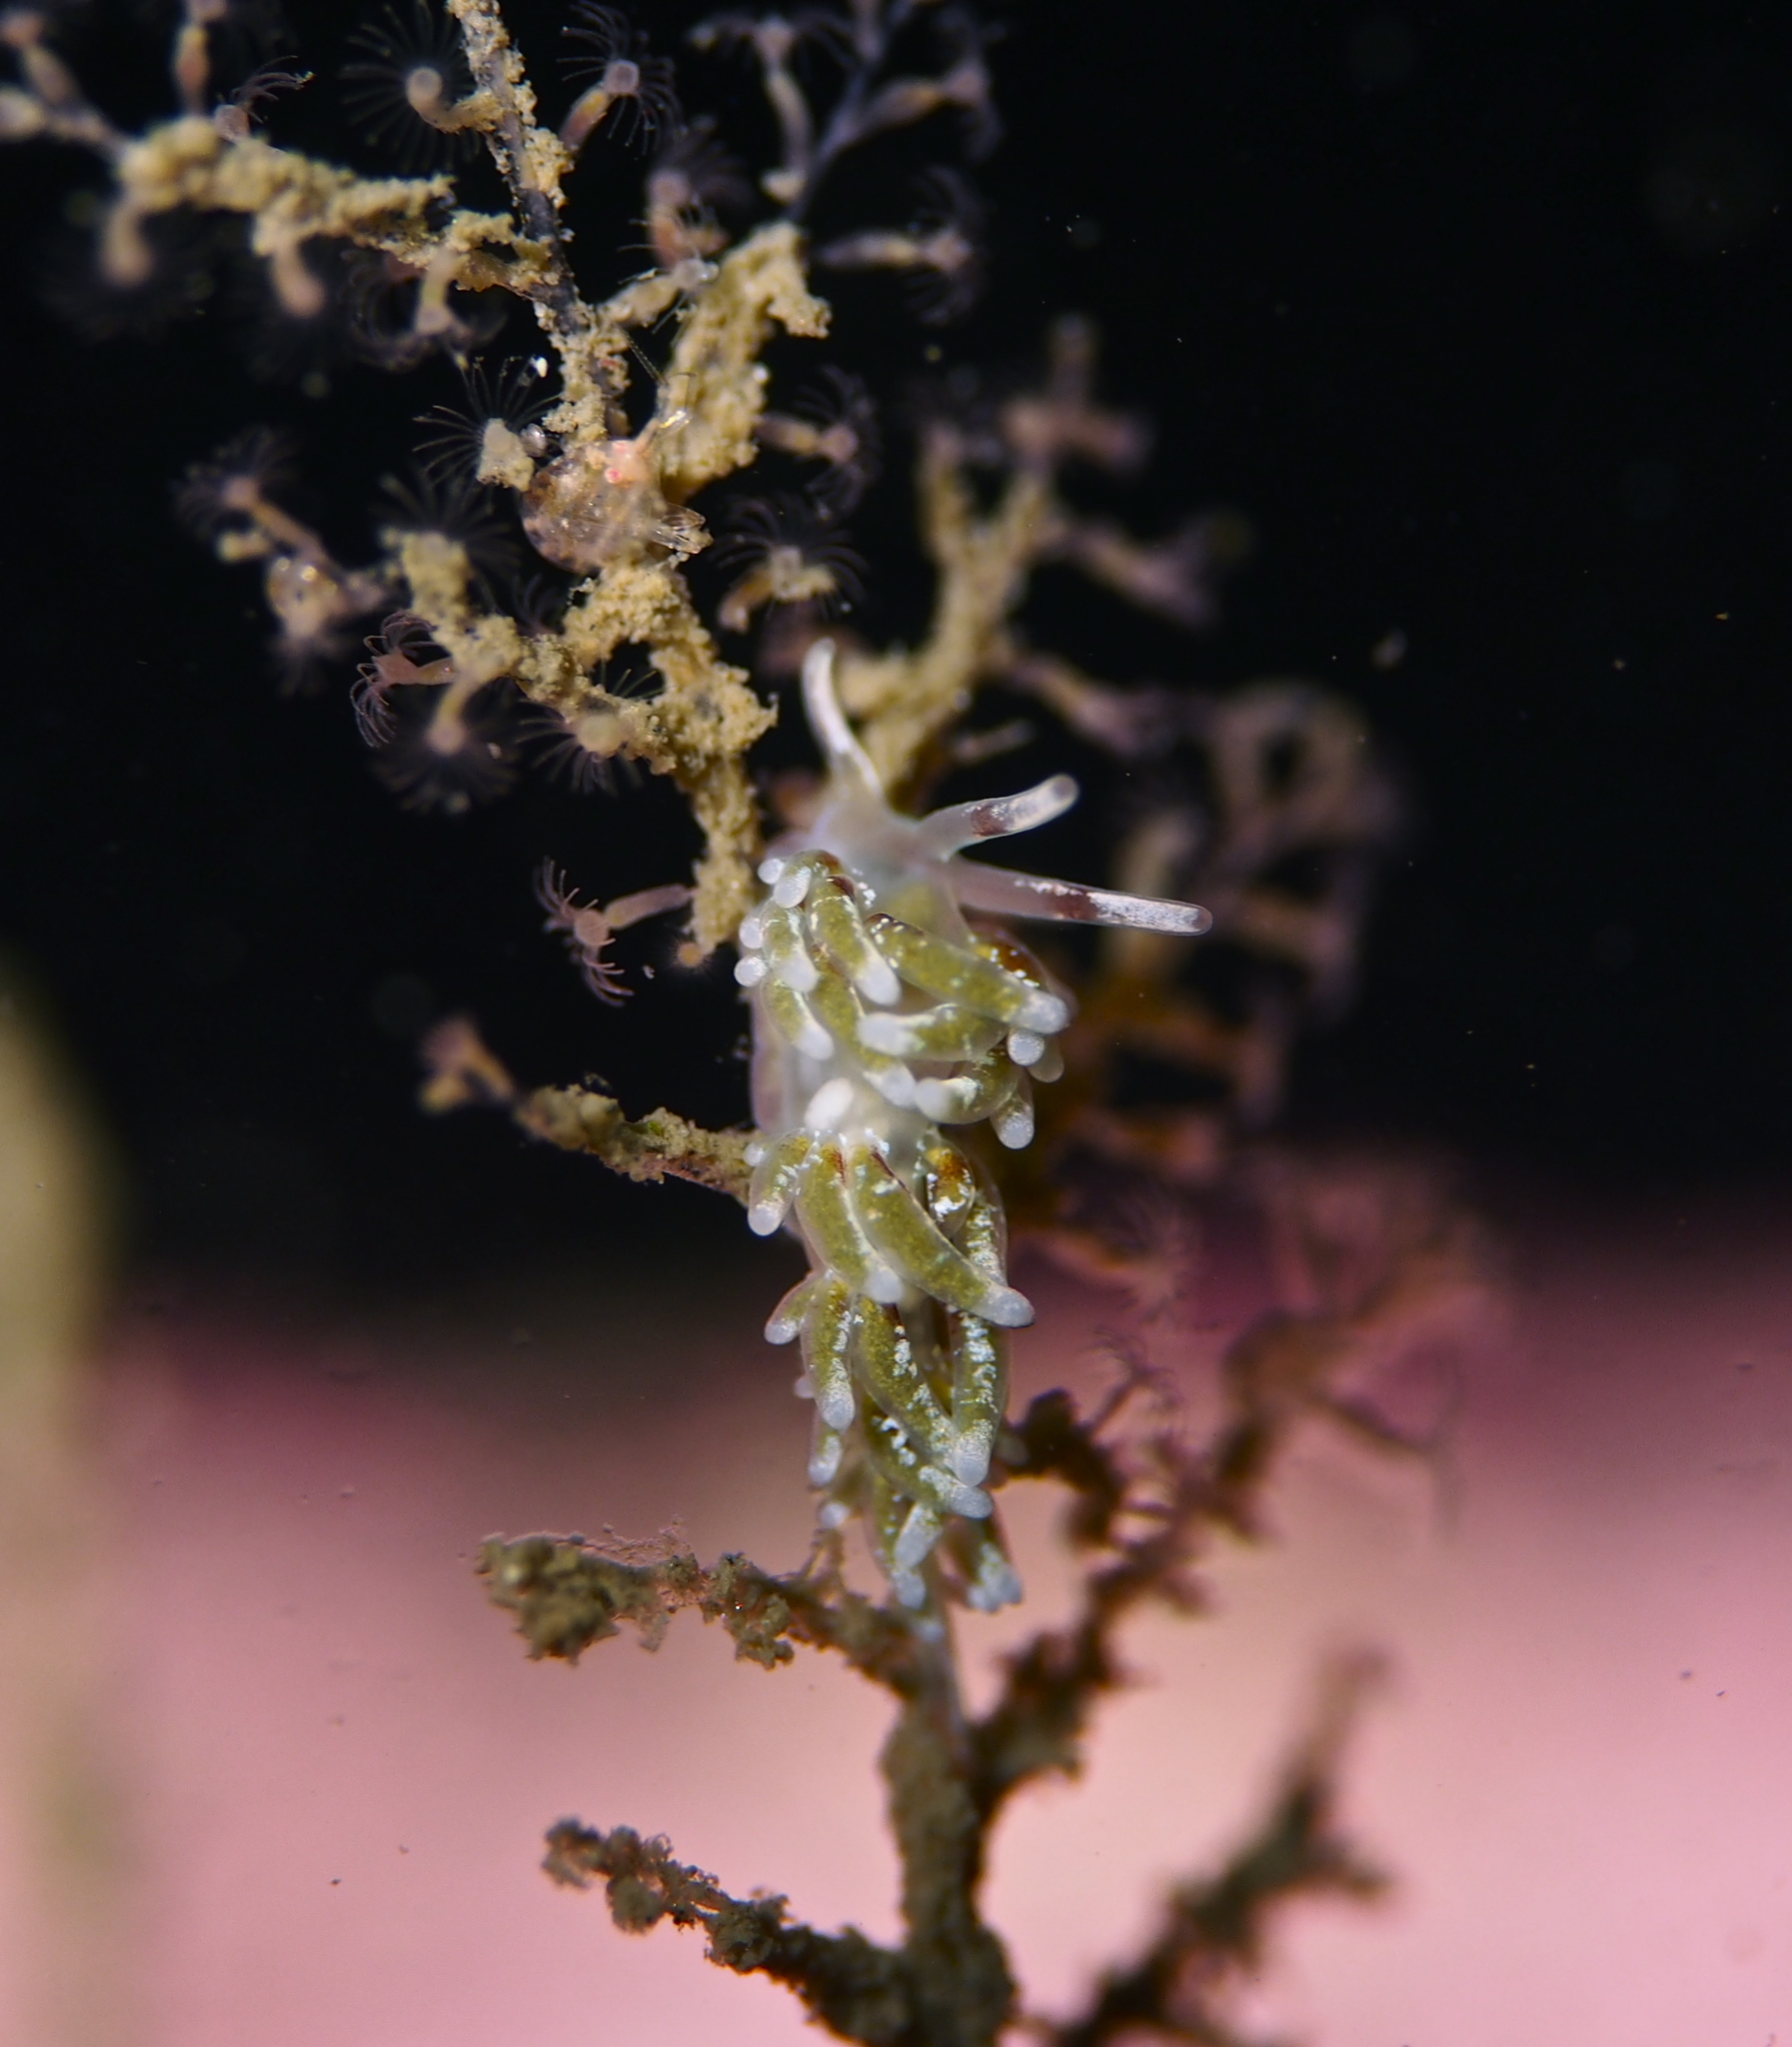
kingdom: Animalia
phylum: Mollusca
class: Gastropoda
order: Nudibranchia
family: Trinchesiidae
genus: Rubramoena
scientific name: Rubramoena rubescens
